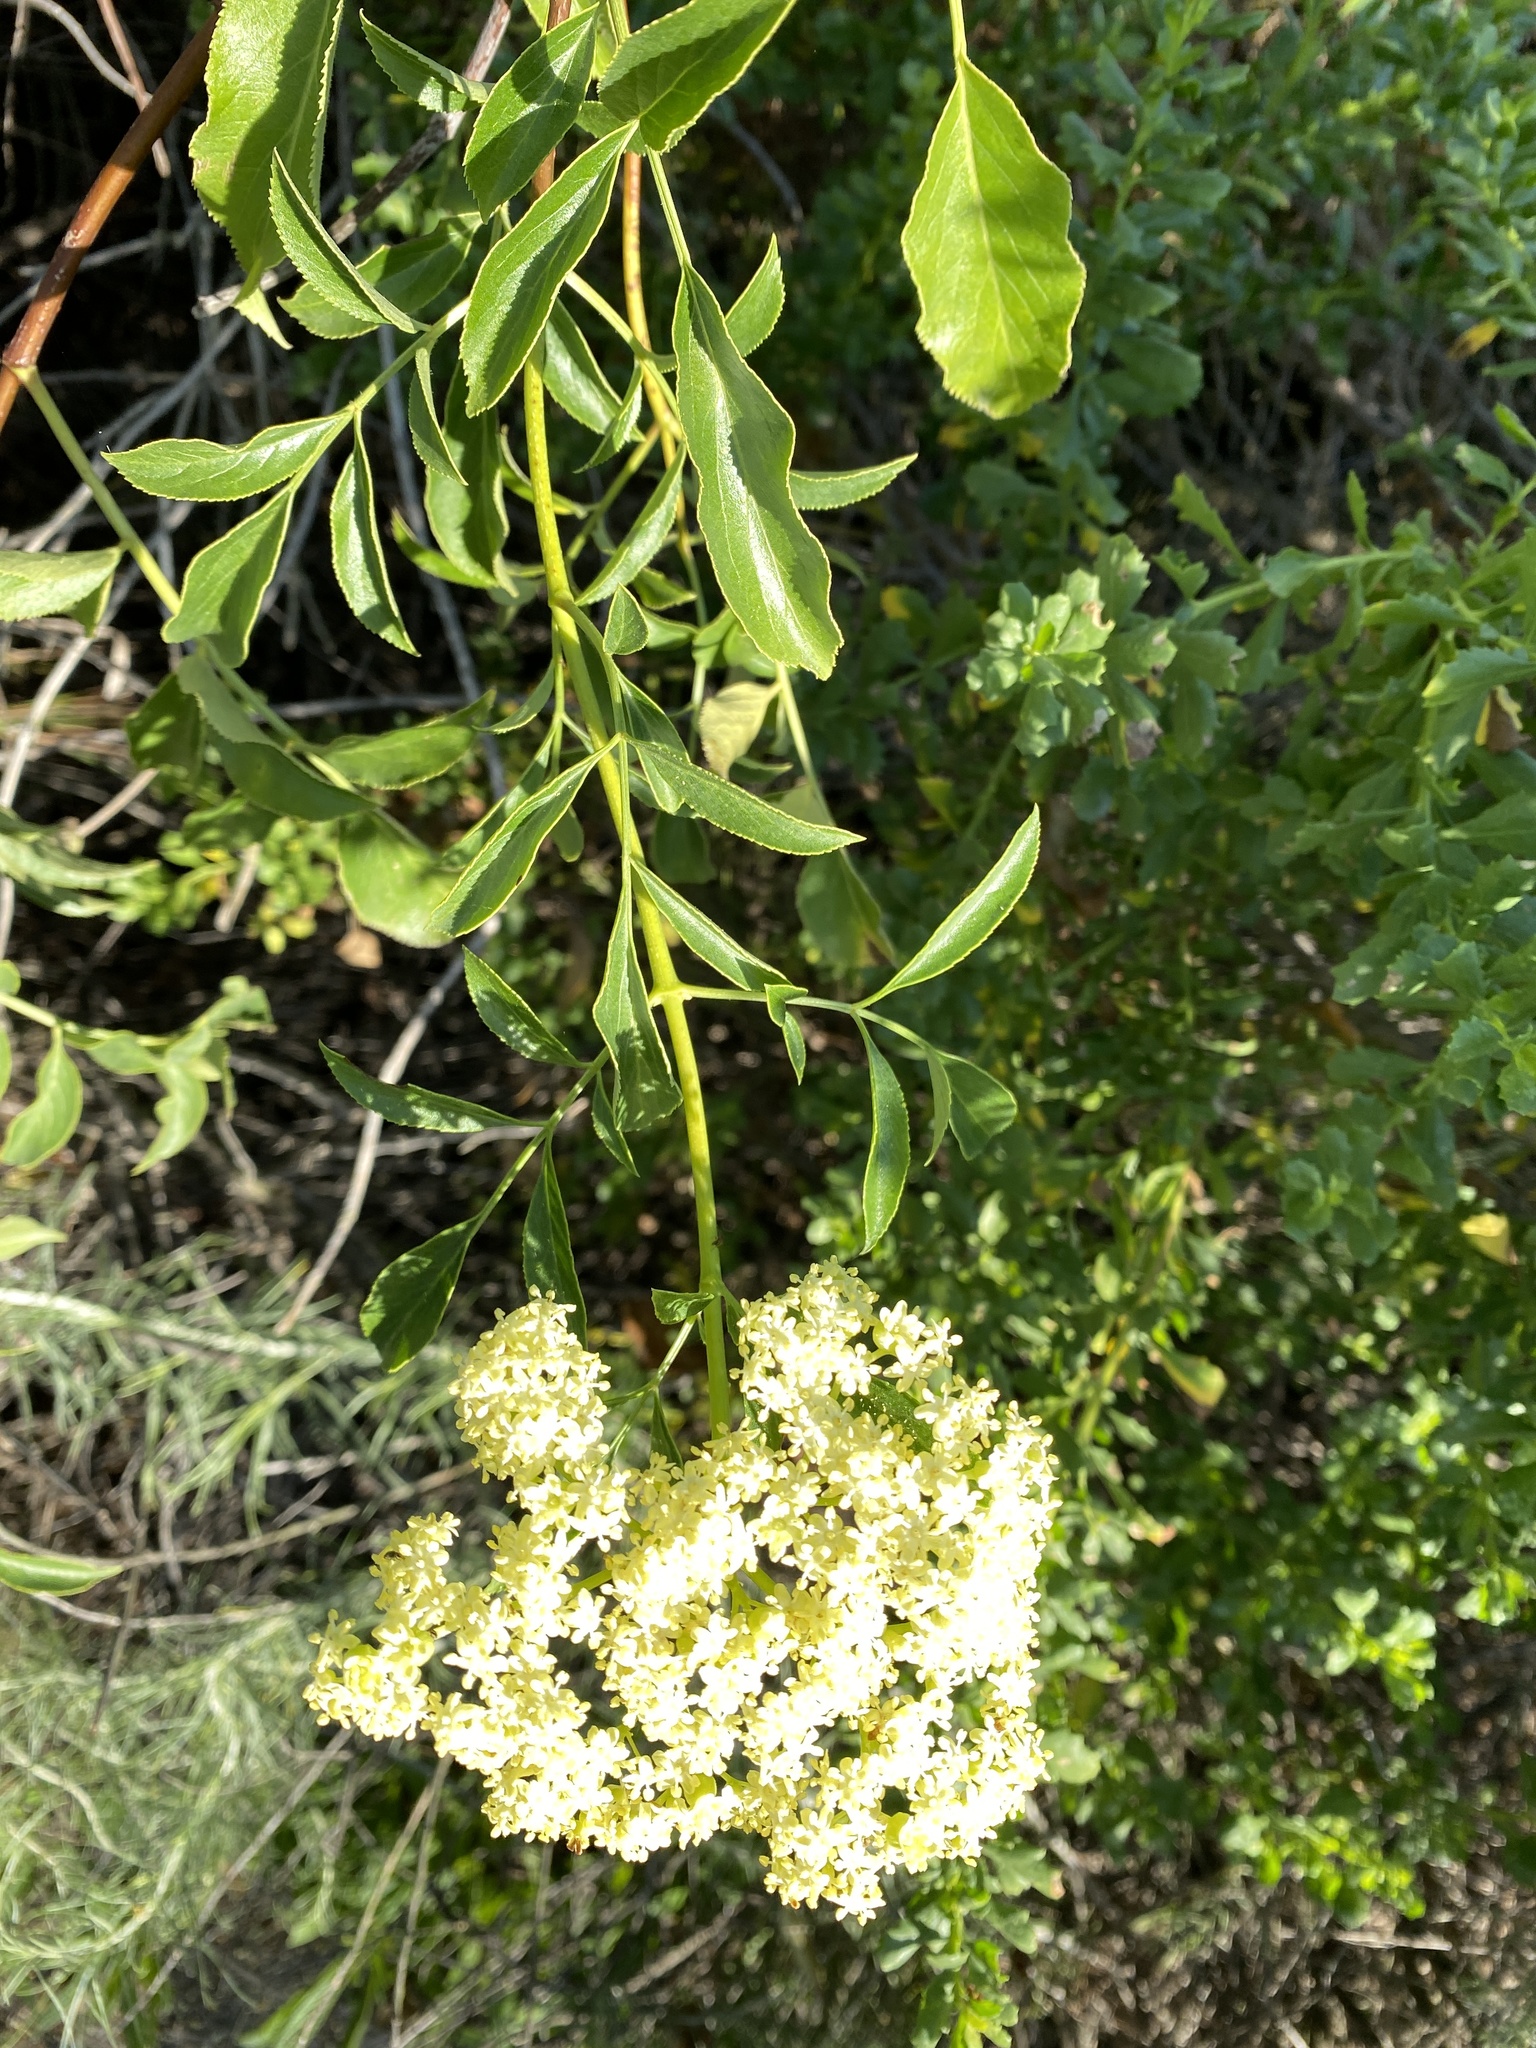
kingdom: Plantae
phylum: Tracheophyta
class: Magnoliopsida
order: Dipsacales
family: Viburnaceae
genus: Sambucus
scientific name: Sambucus cerulea
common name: Blue elder
